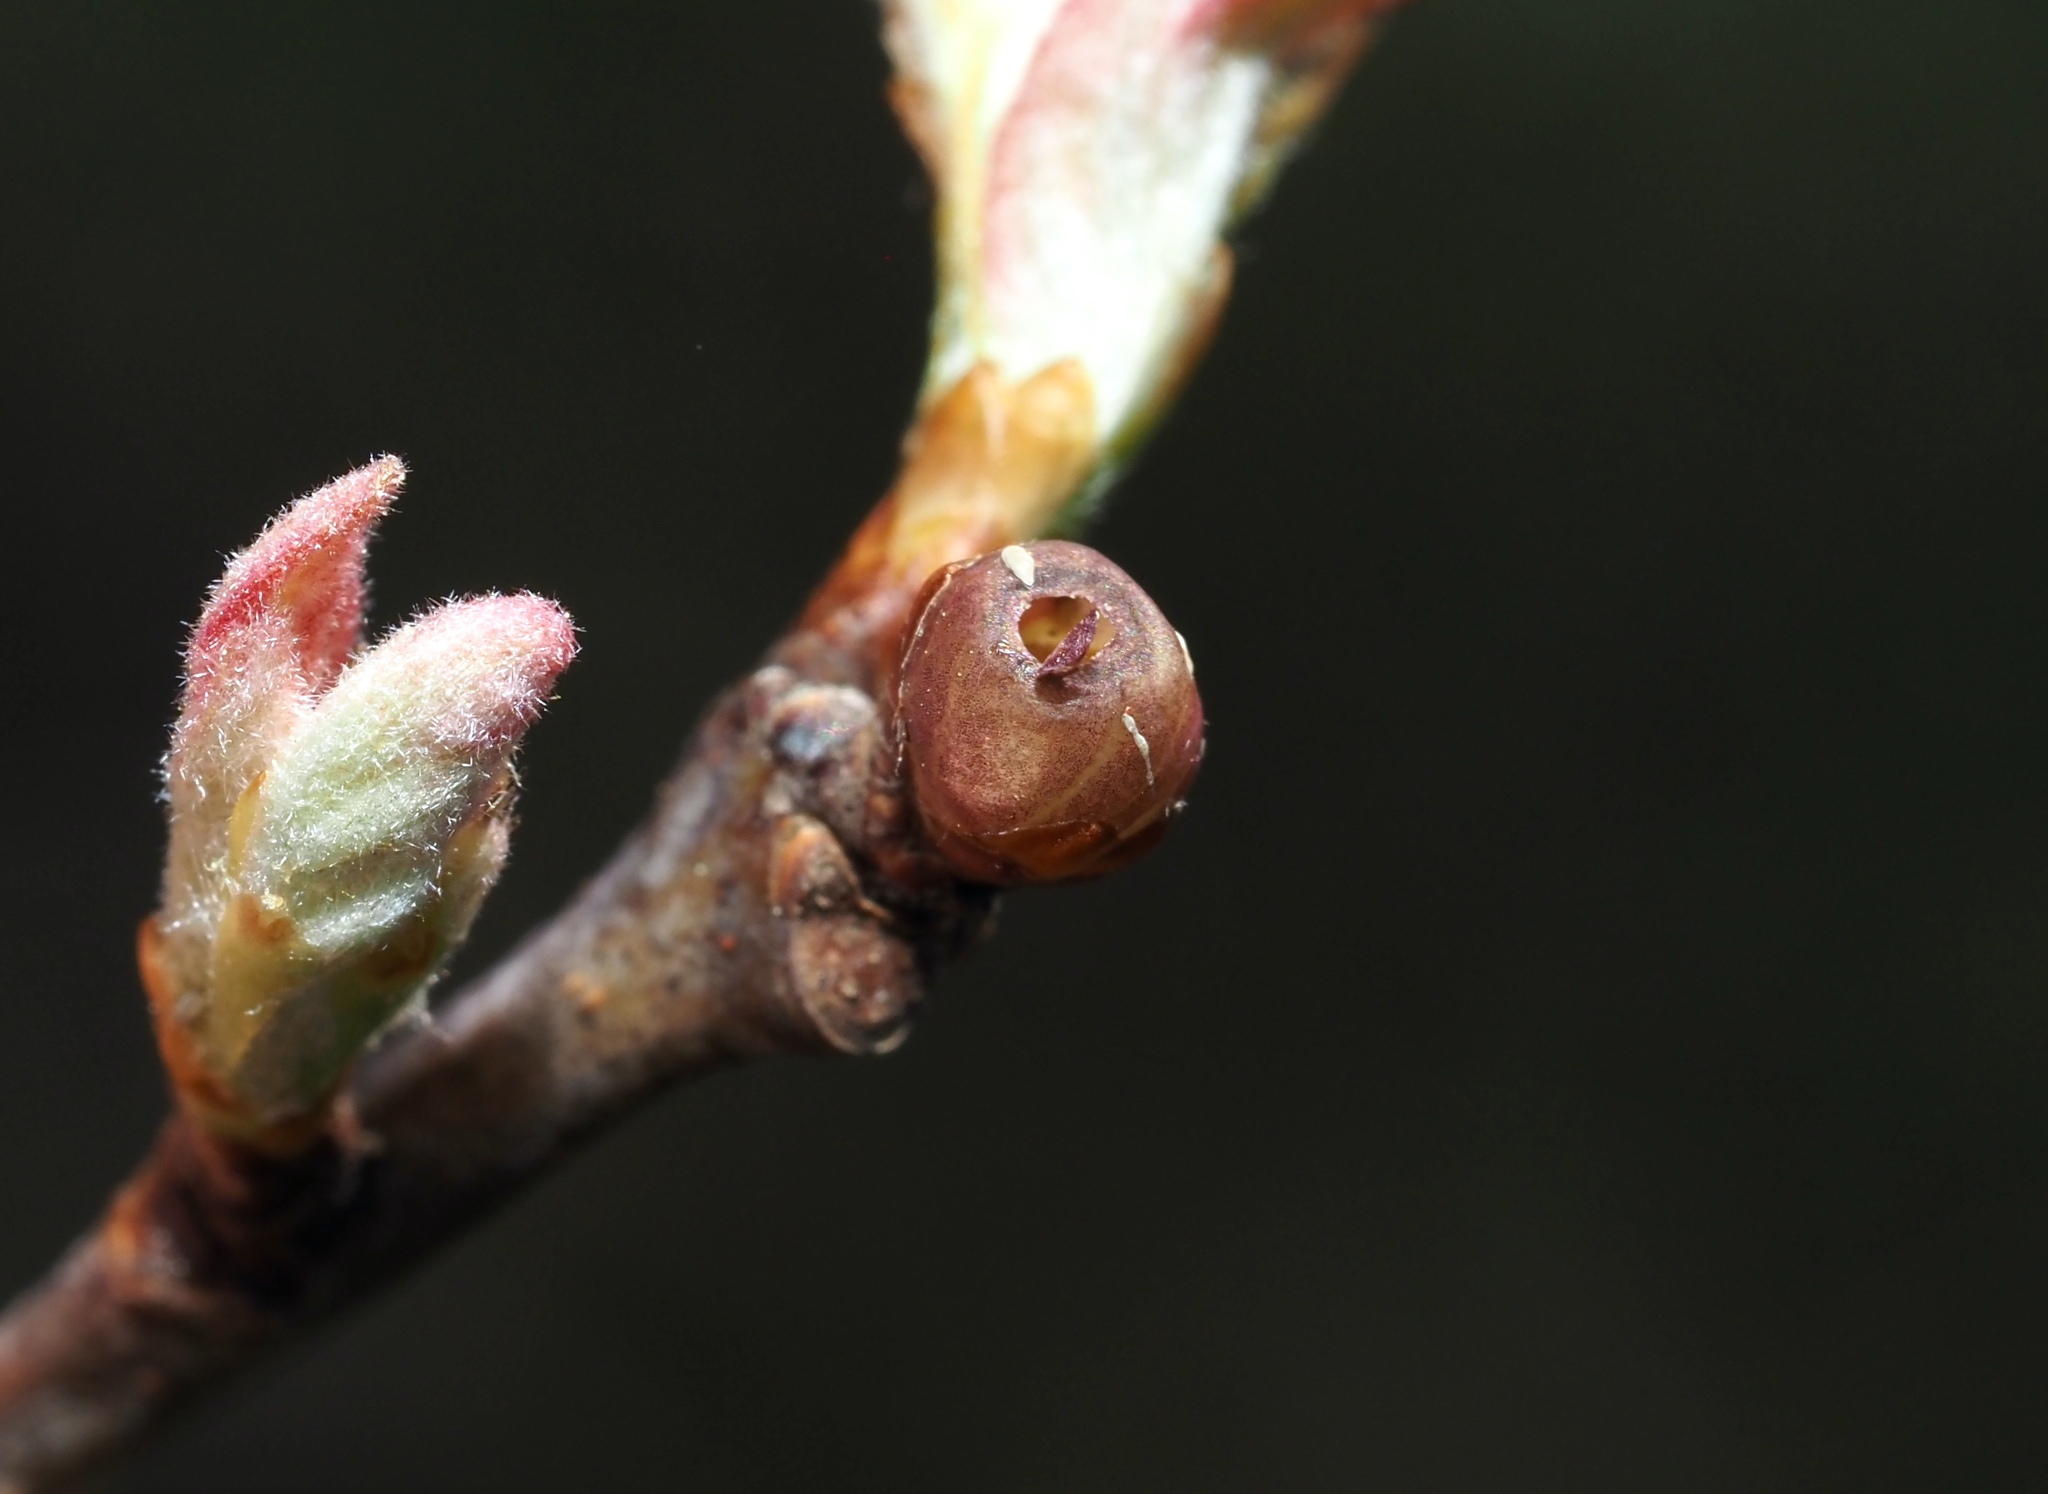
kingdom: Animalia
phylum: Arthropoda
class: Insecta
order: Hymenoptera
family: Cynipidae
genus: Neuroterus
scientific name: Neuroterus
